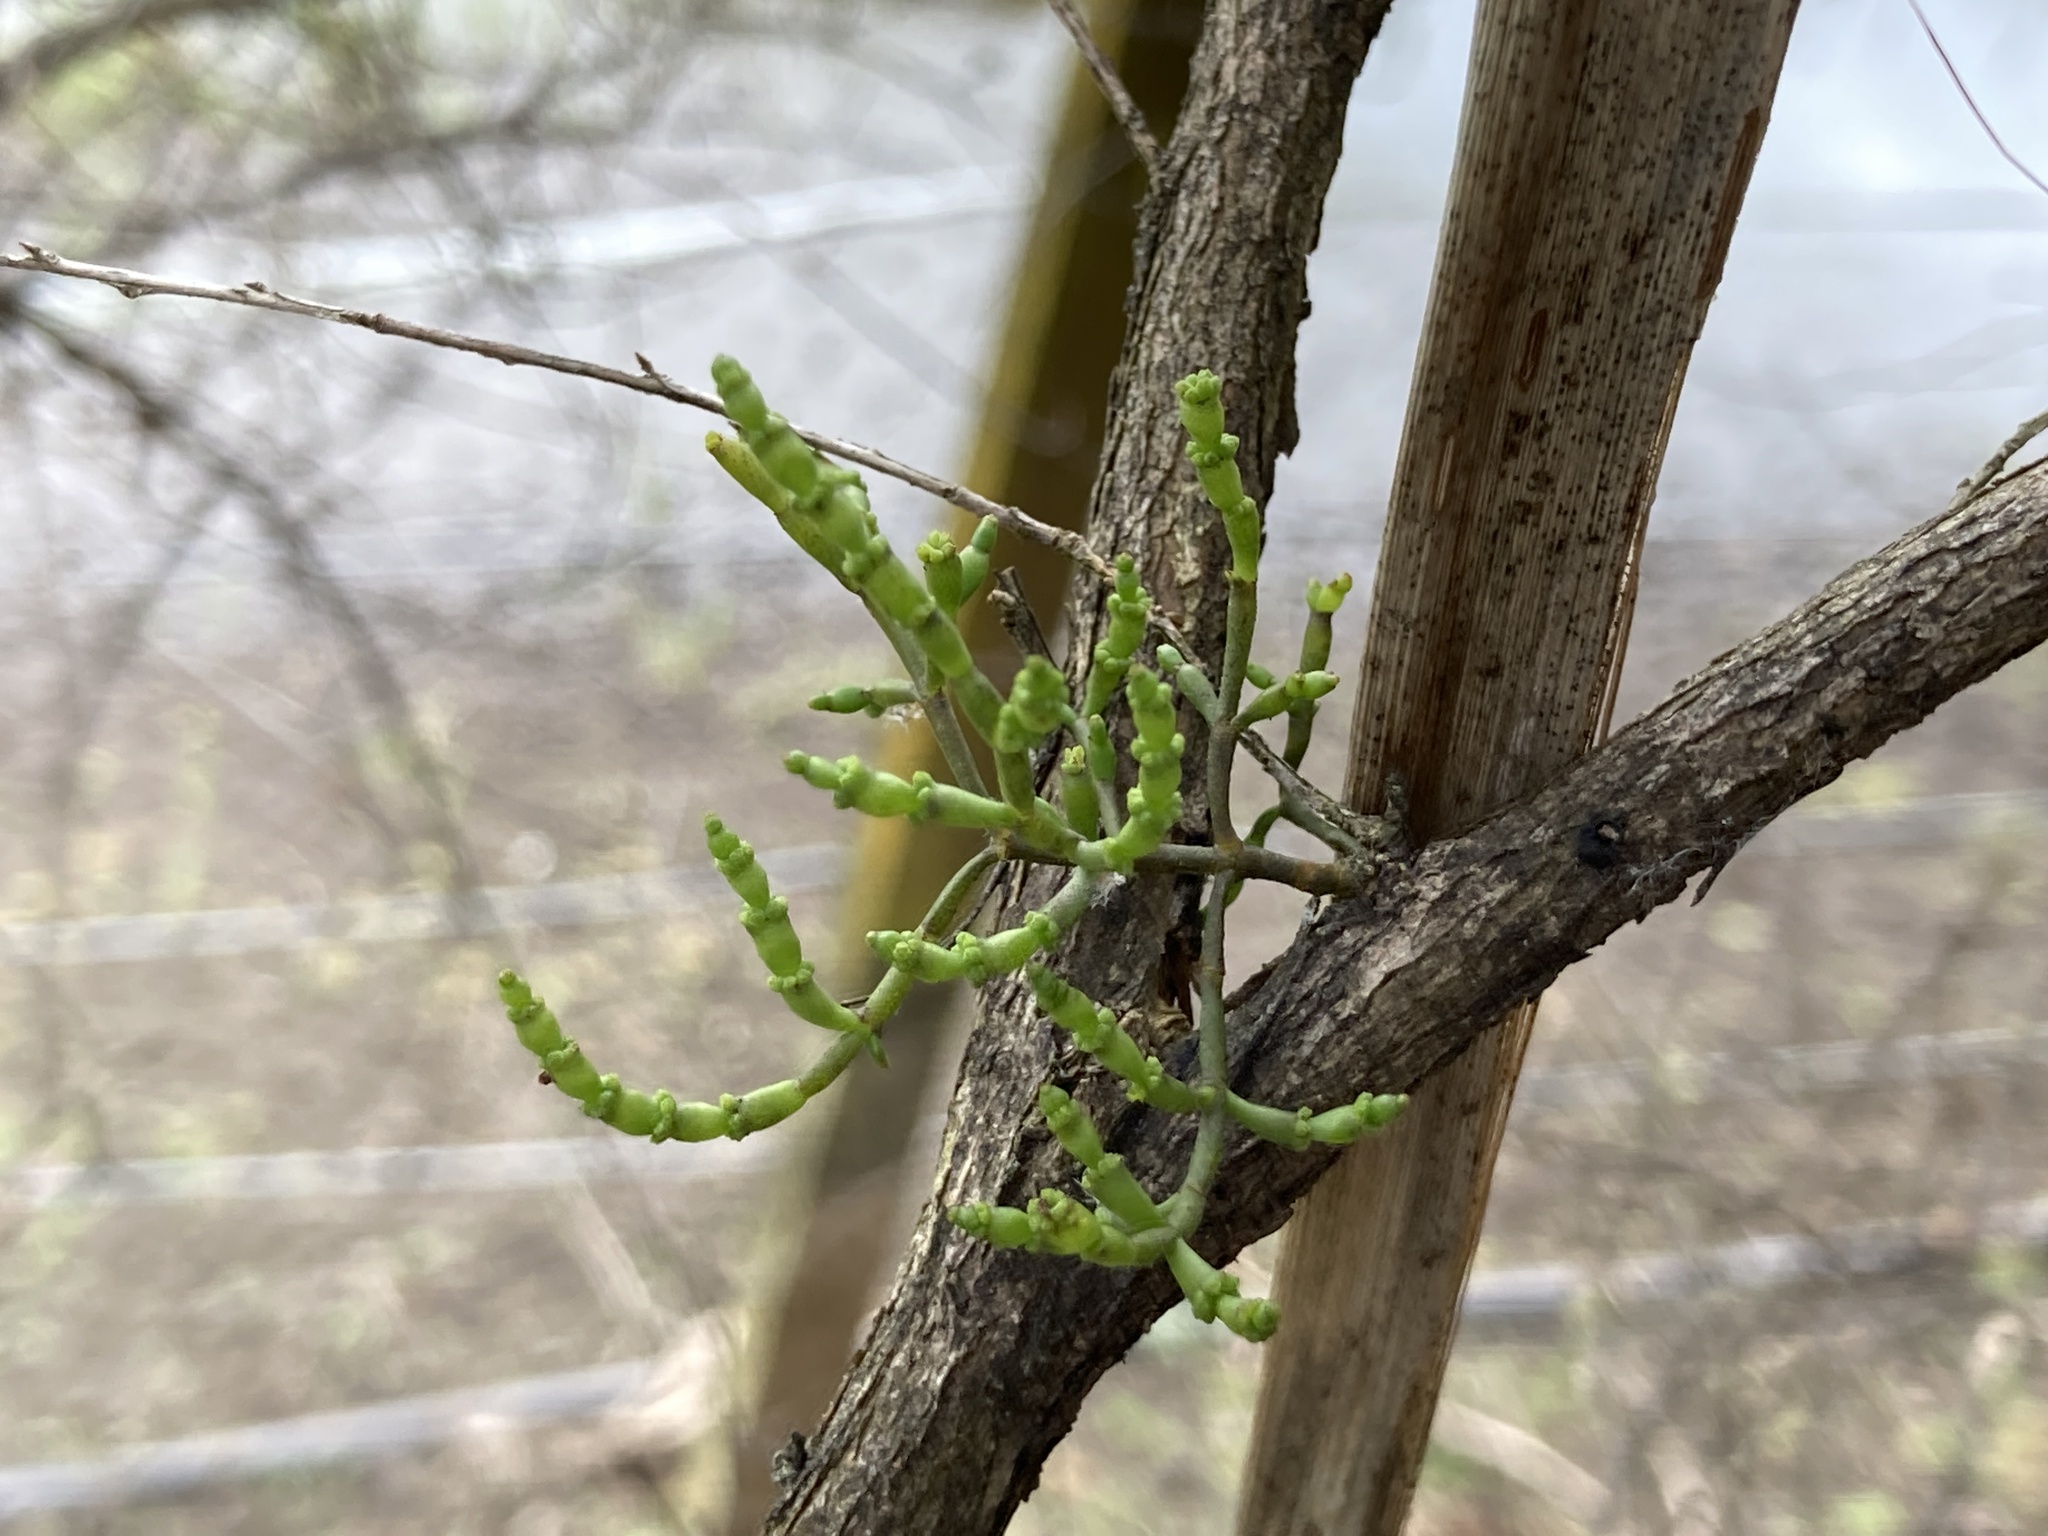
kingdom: Plantae
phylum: Tracheophyta
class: Magnoliopsida
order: Santalales
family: Viscaceae
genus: Korthalsella
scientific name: Korthalsella salicornioides
